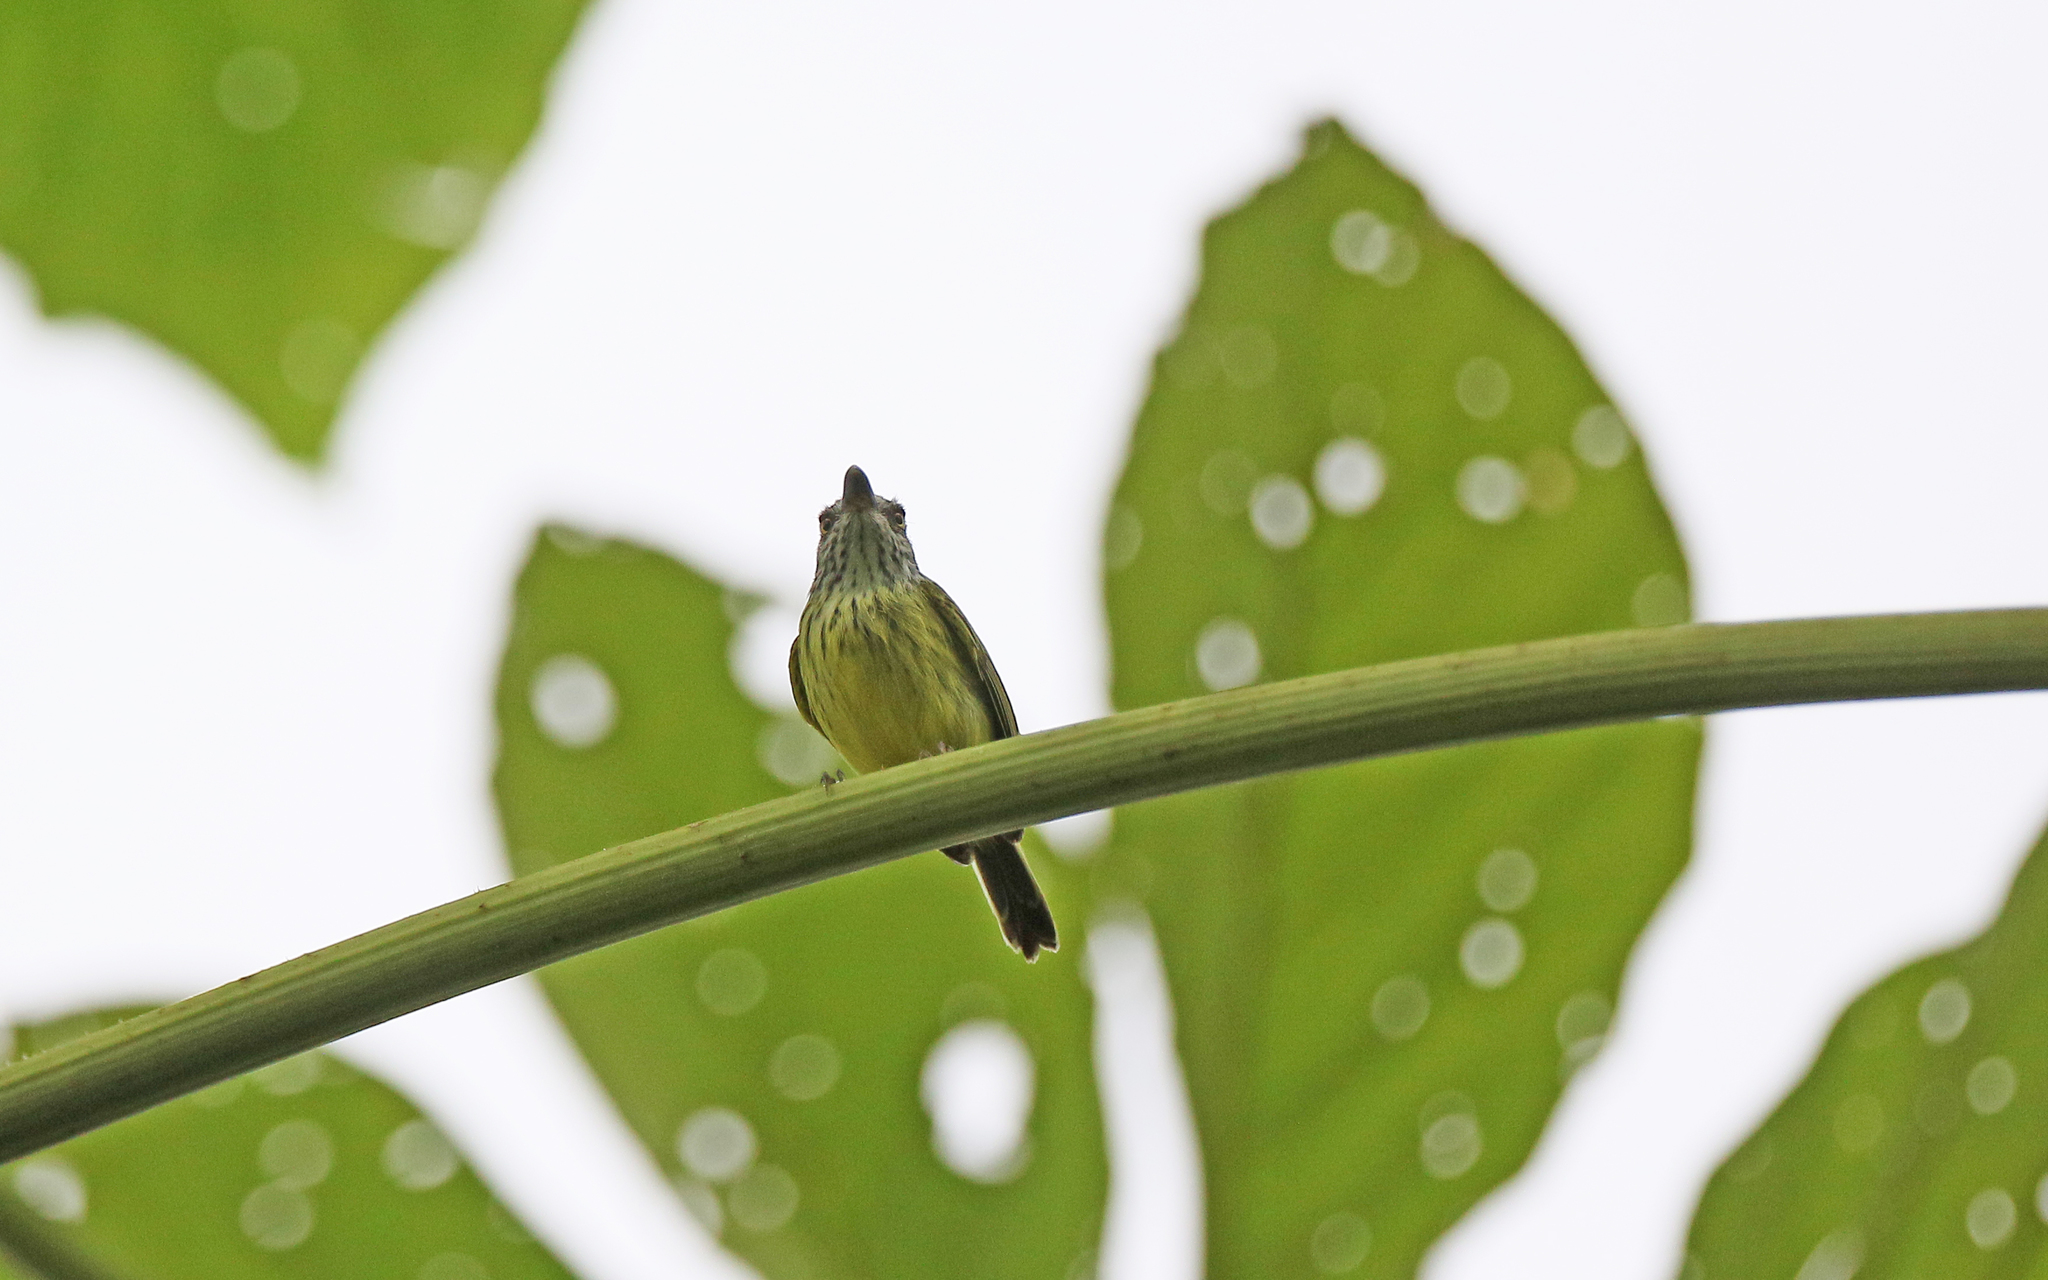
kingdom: Animalia
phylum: Chordata
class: Aves
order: Passeriformes
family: Tyrannidae
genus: Todirostrum
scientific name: Todirostrum maculatum
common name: Spotted tody-flycatcher
